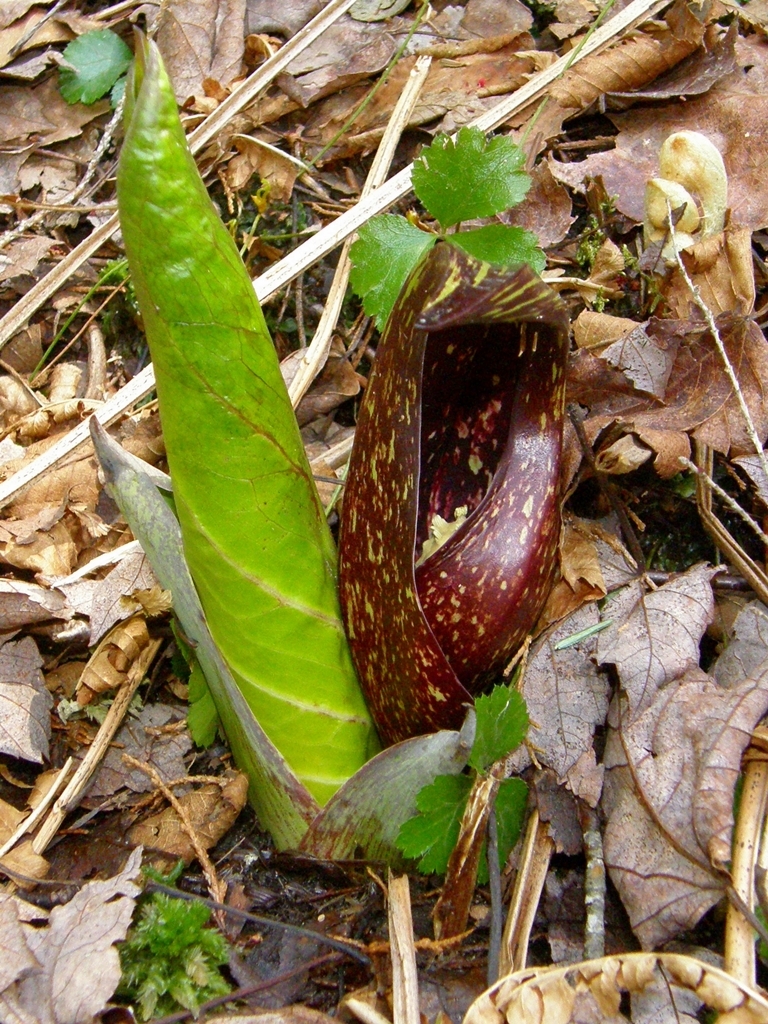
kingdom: Plantae
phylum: Tracheophyta
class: Liliopsida
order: Alismatales
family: Araceae
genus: Symplocarpus
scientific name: Symplocarpus foetidus
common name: Eastern skunk cabbage
